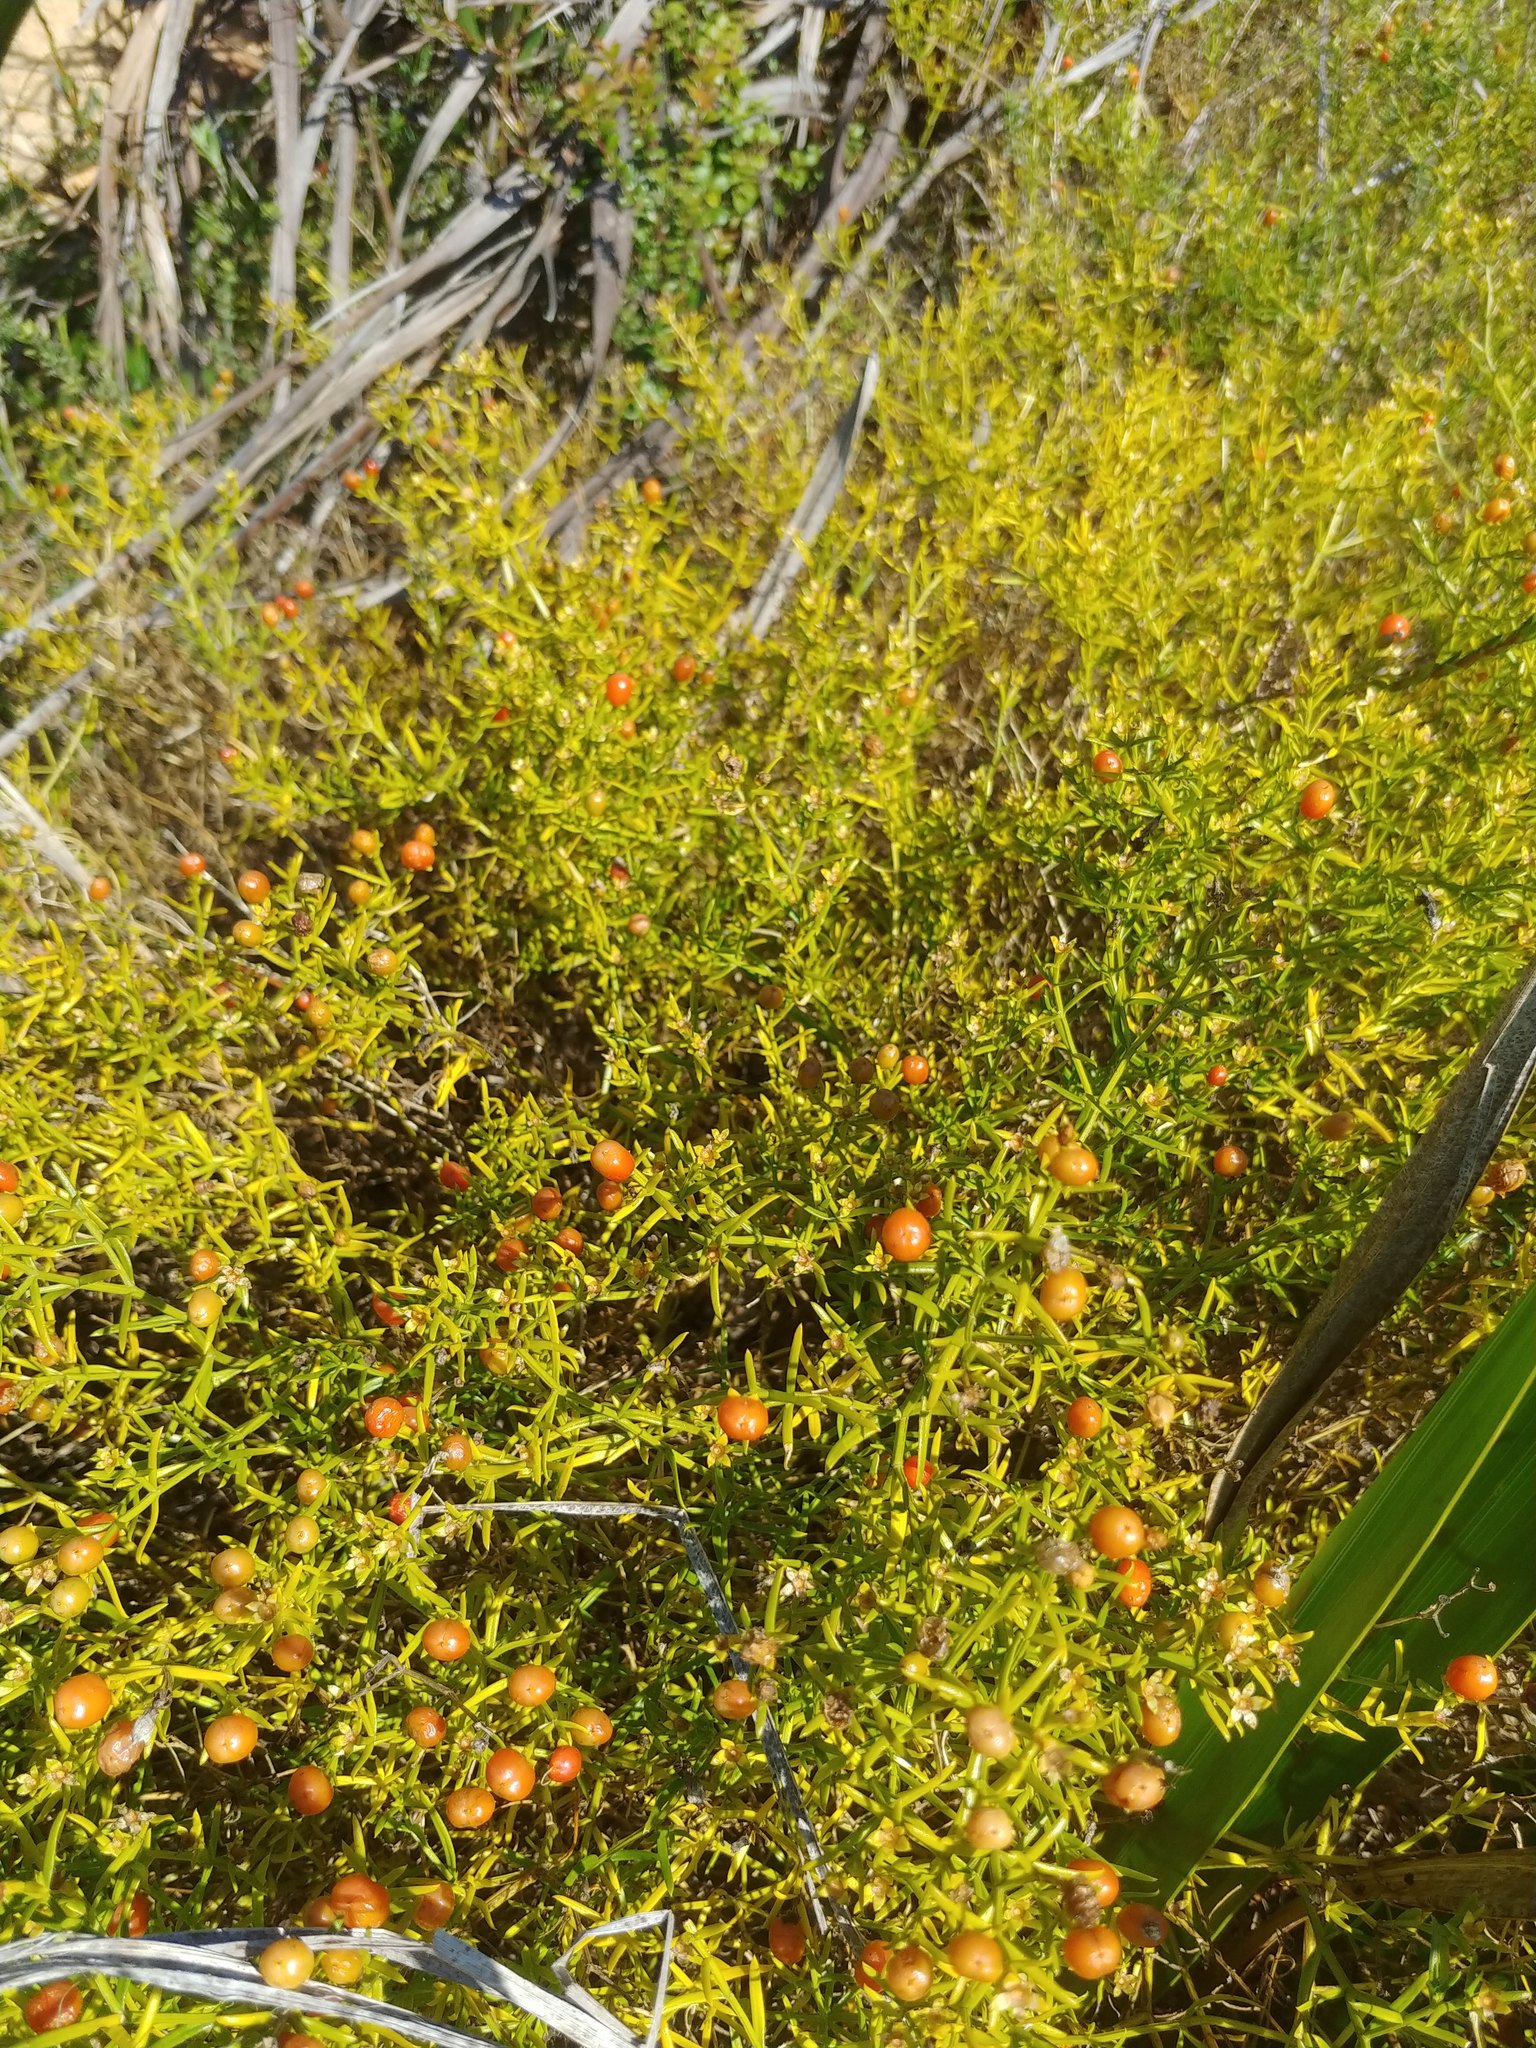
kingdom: Plantae
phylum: Tracheophyta
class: Magnoliopsida
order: Gentianales
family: Gentianaceae
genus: Chironia
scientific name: Chironia baccifera
